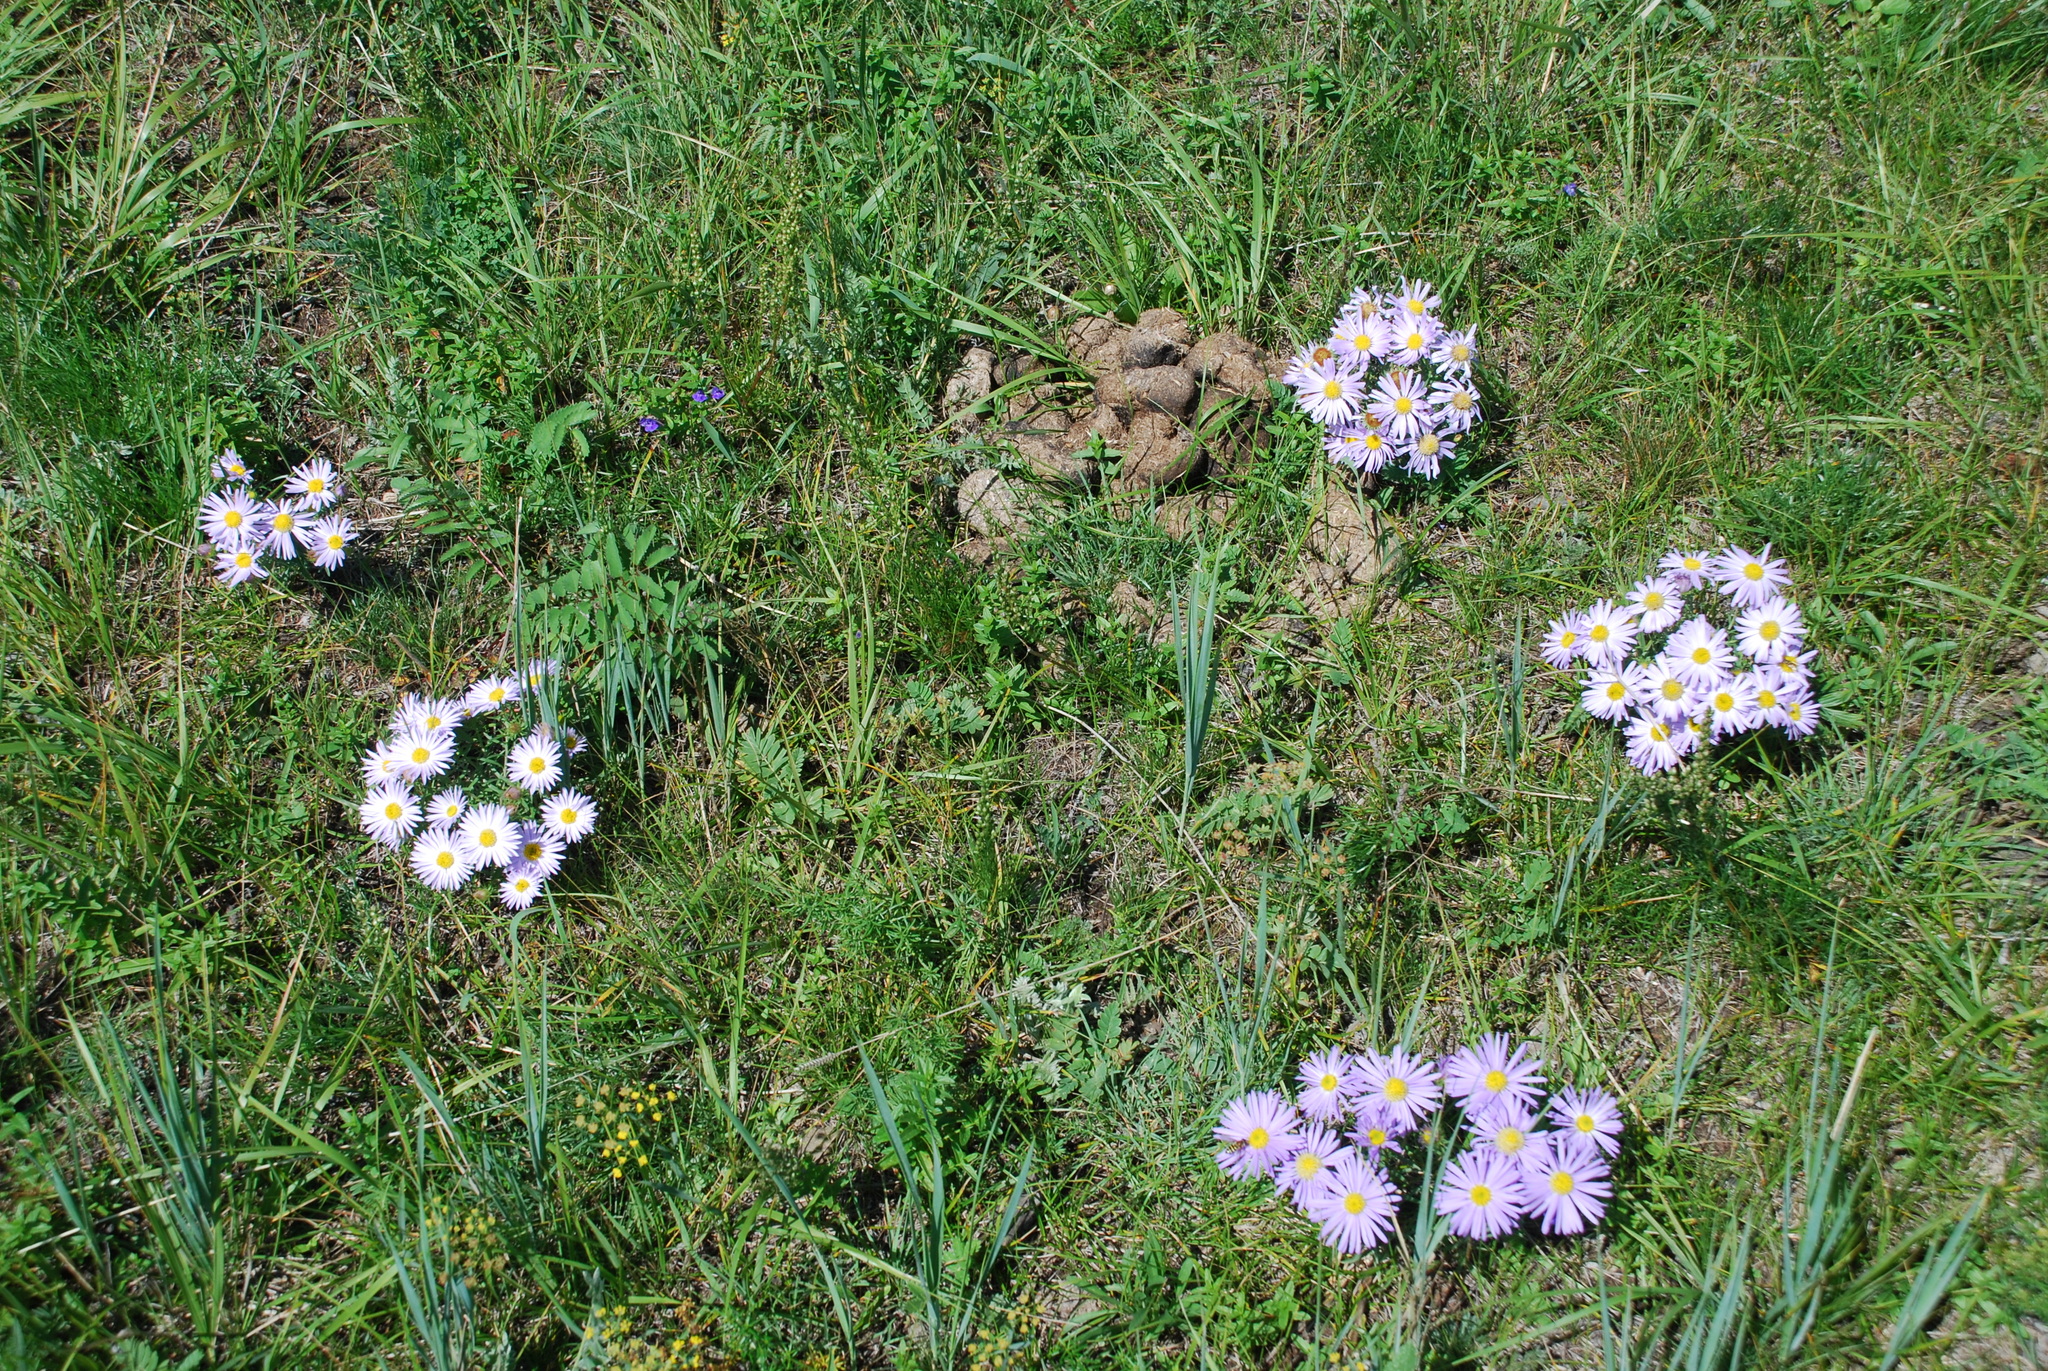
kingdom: Plantae
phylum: Tracheophyta
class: Magnoliopsida
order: Asterales
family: Asteraceae
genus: Heteropappus
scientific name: Heteropappus altaicus
